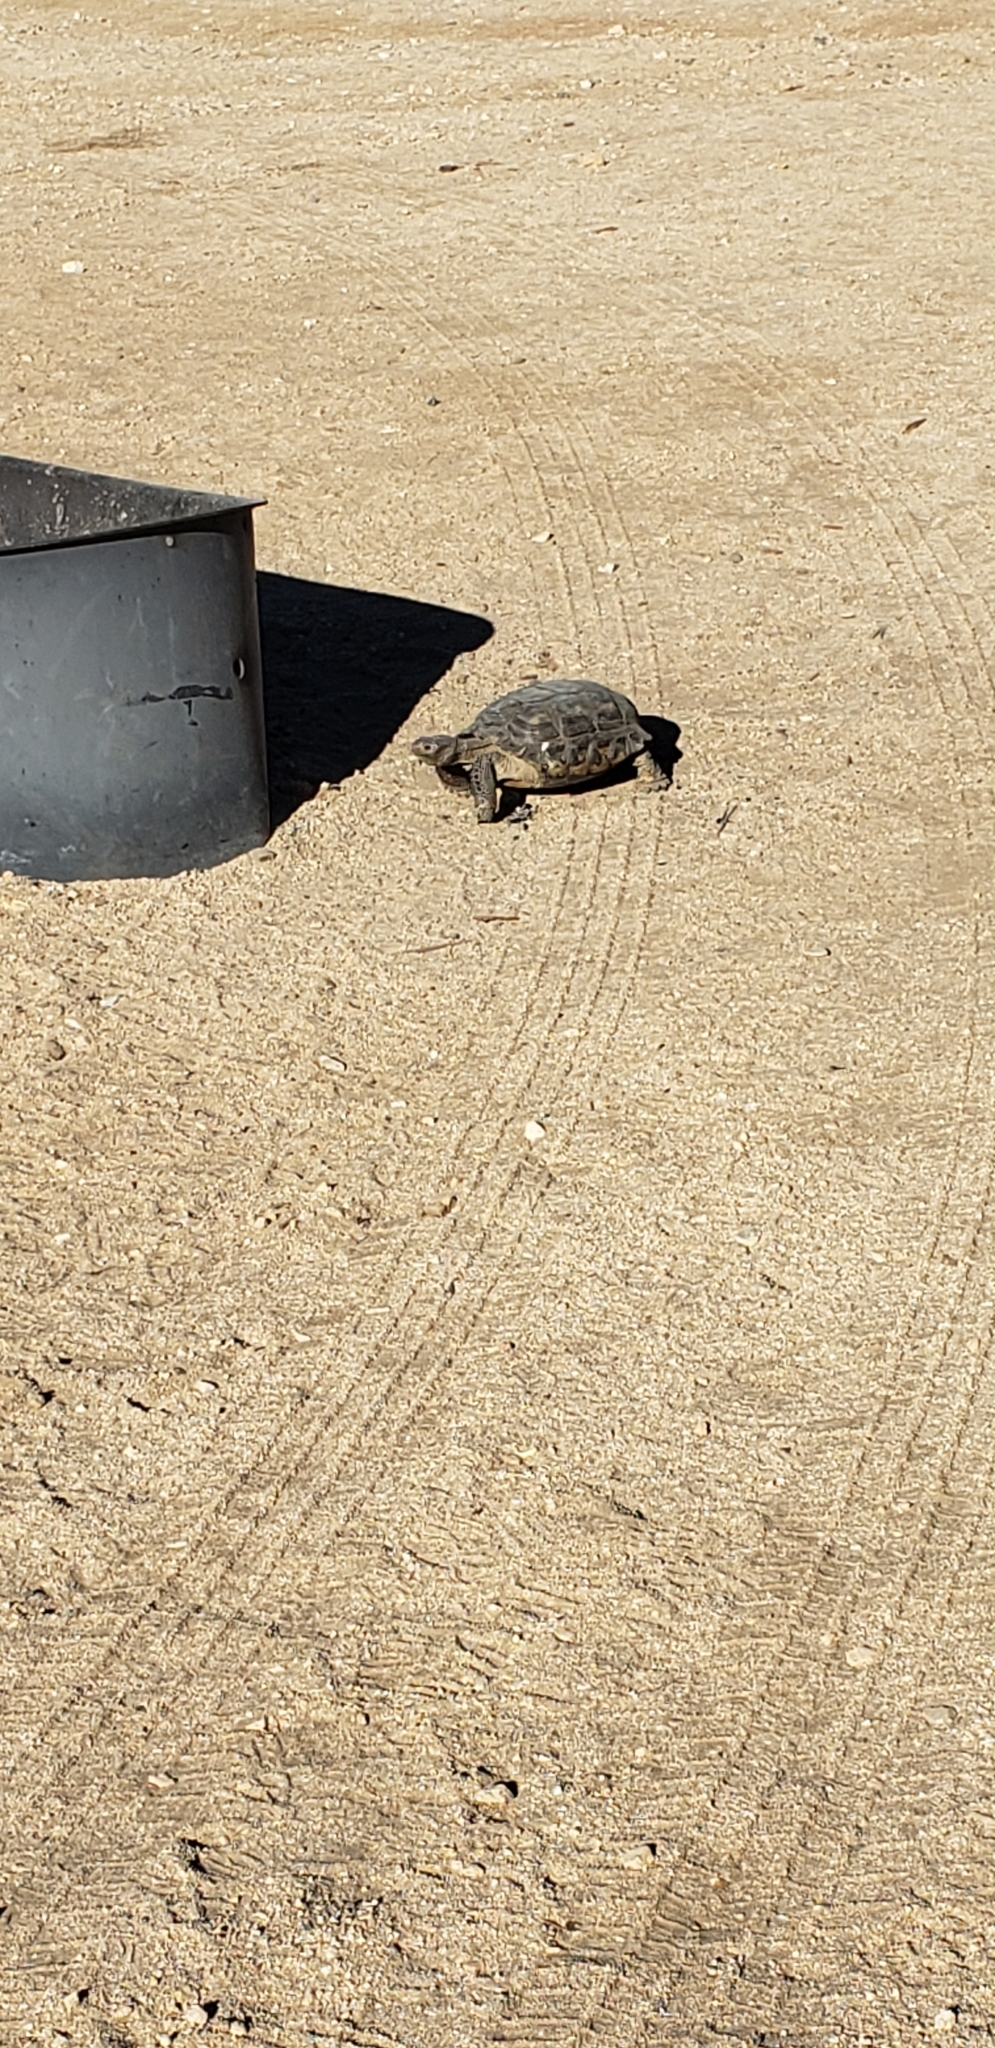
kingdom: Animalia
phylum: Chordata
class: Testudines
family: Testudinidae
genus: Gopherus
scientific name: Gopherus agassizii
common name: Mojave desert tortoise
